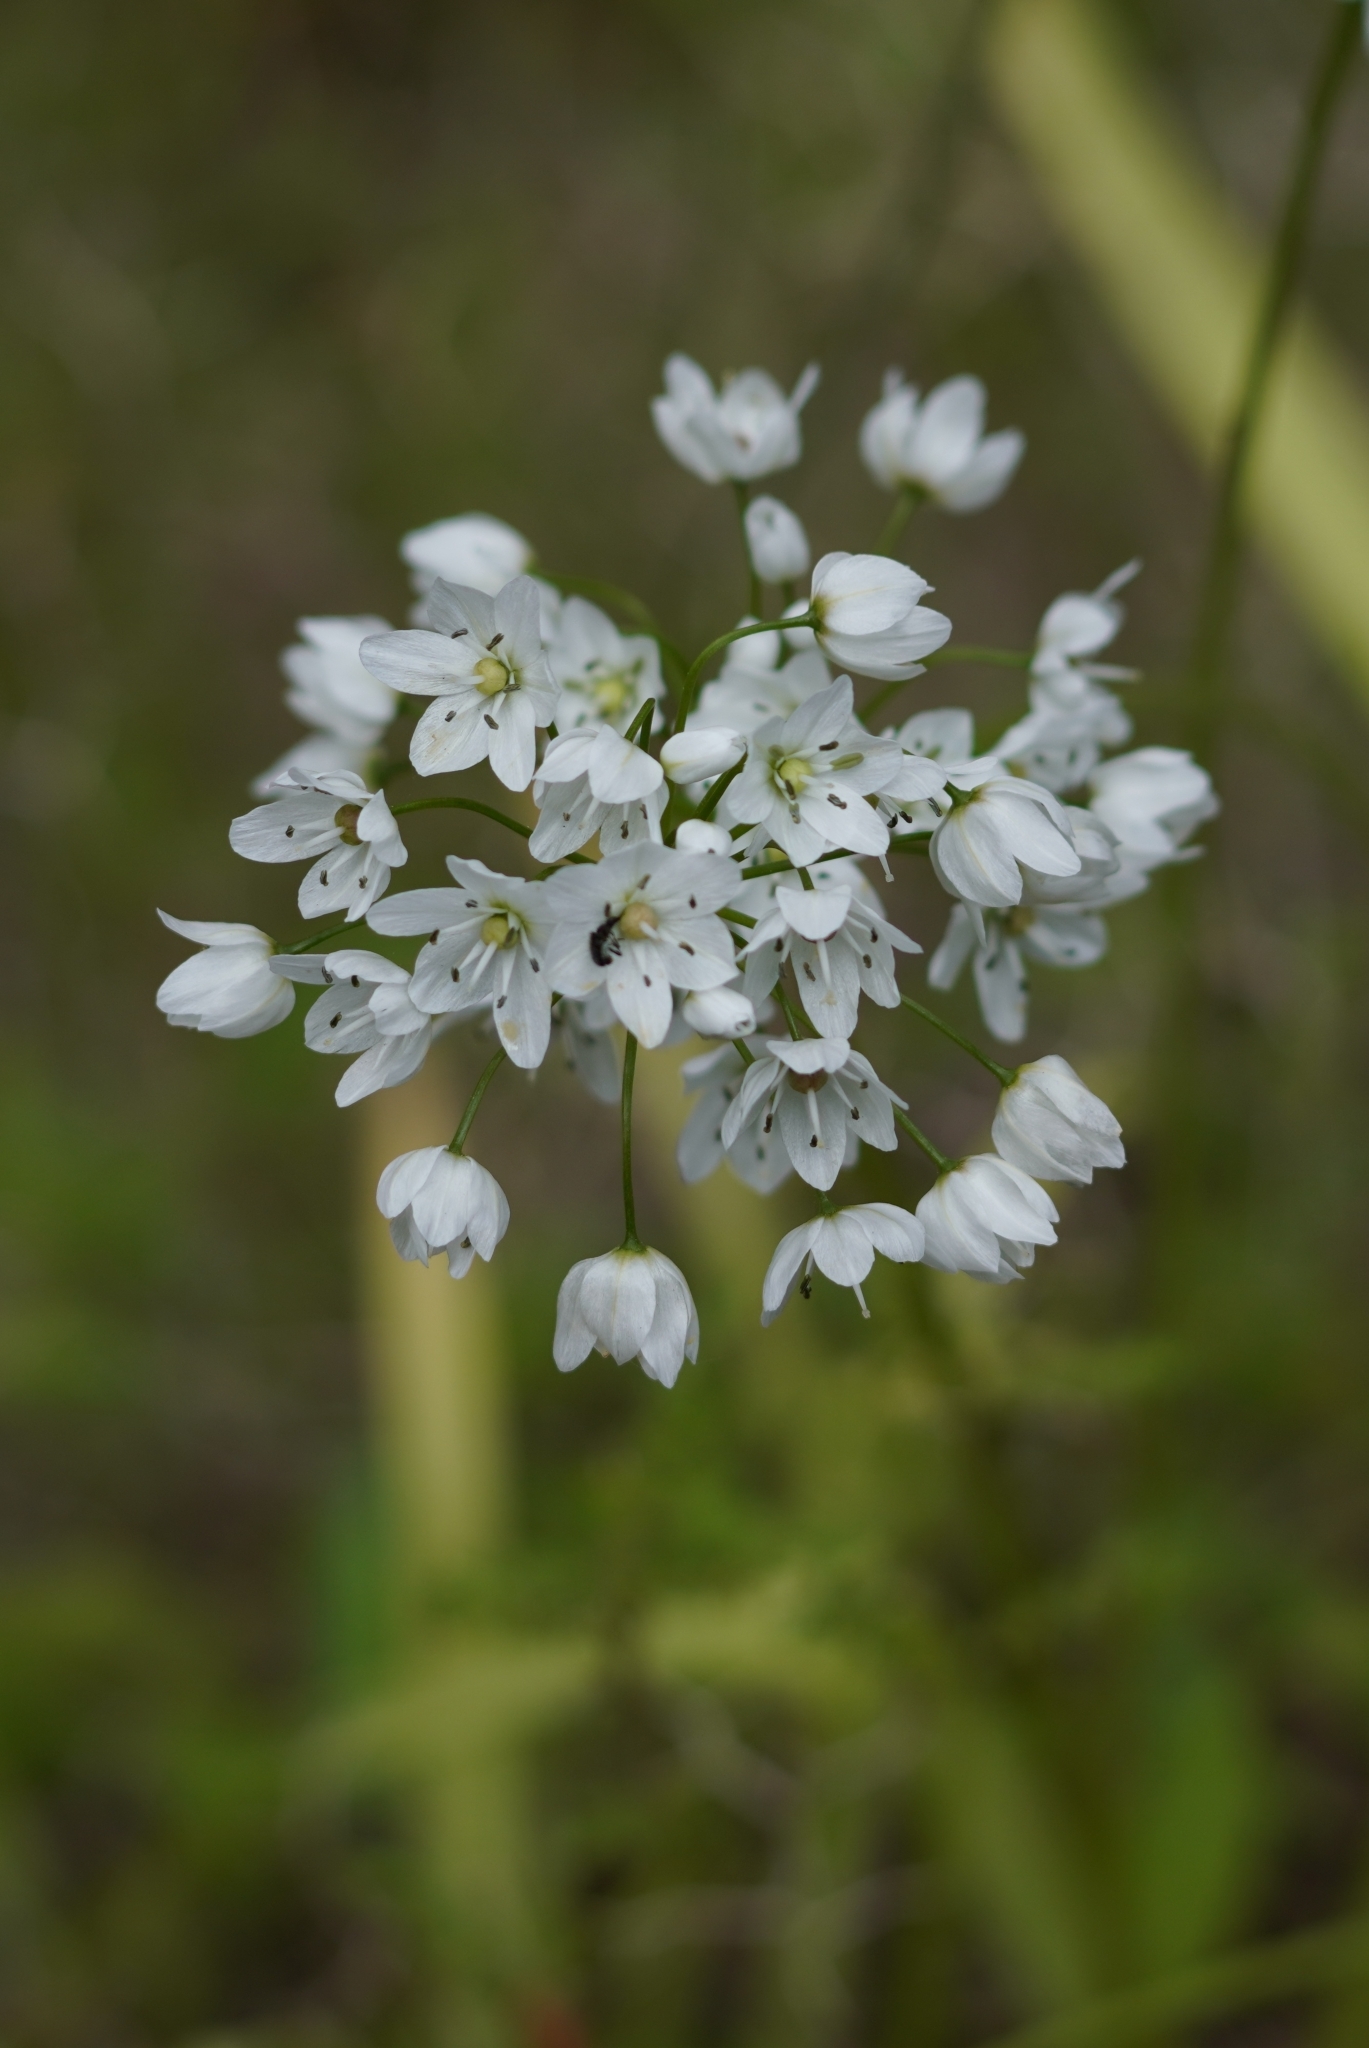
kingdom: Plantae
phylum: Tracheophyta
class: Liliopsida
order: Asparagales
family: Amaryllidaceae
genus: Allium
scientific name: Allium neapolitanum
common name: Neapolitan garlic
